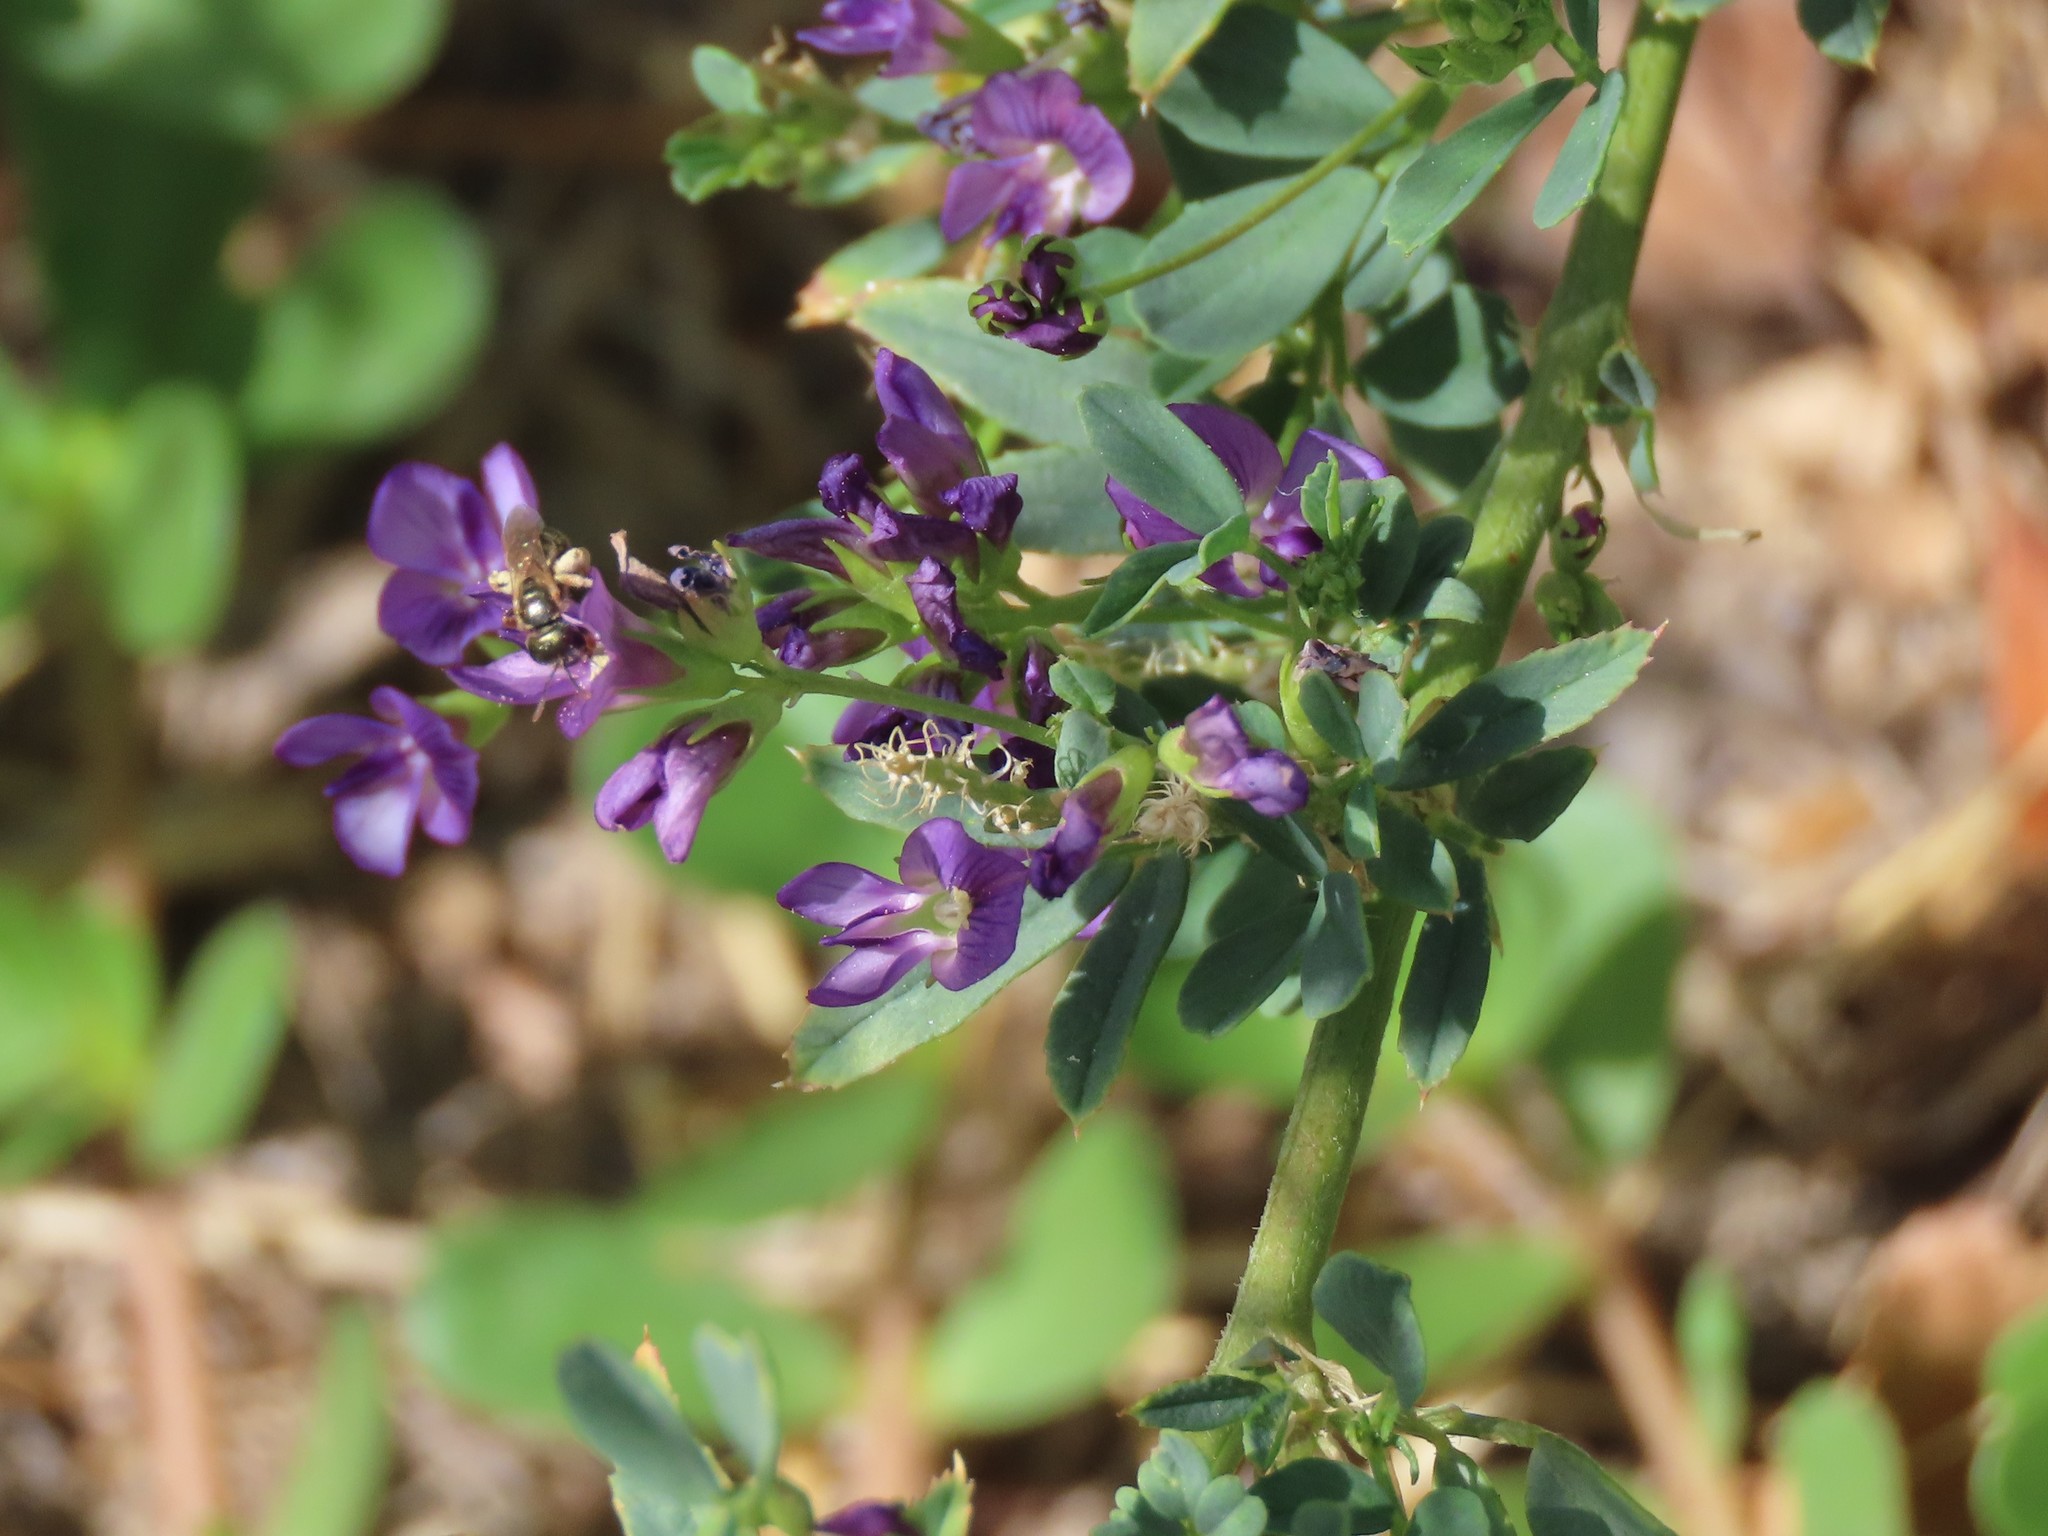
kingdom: Plantae
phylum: Tracheophyta
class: Magnoliopsida
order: Fabales
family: Fabaceae
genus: Medicago
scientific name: Medicago sativa
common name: Alfalfa
